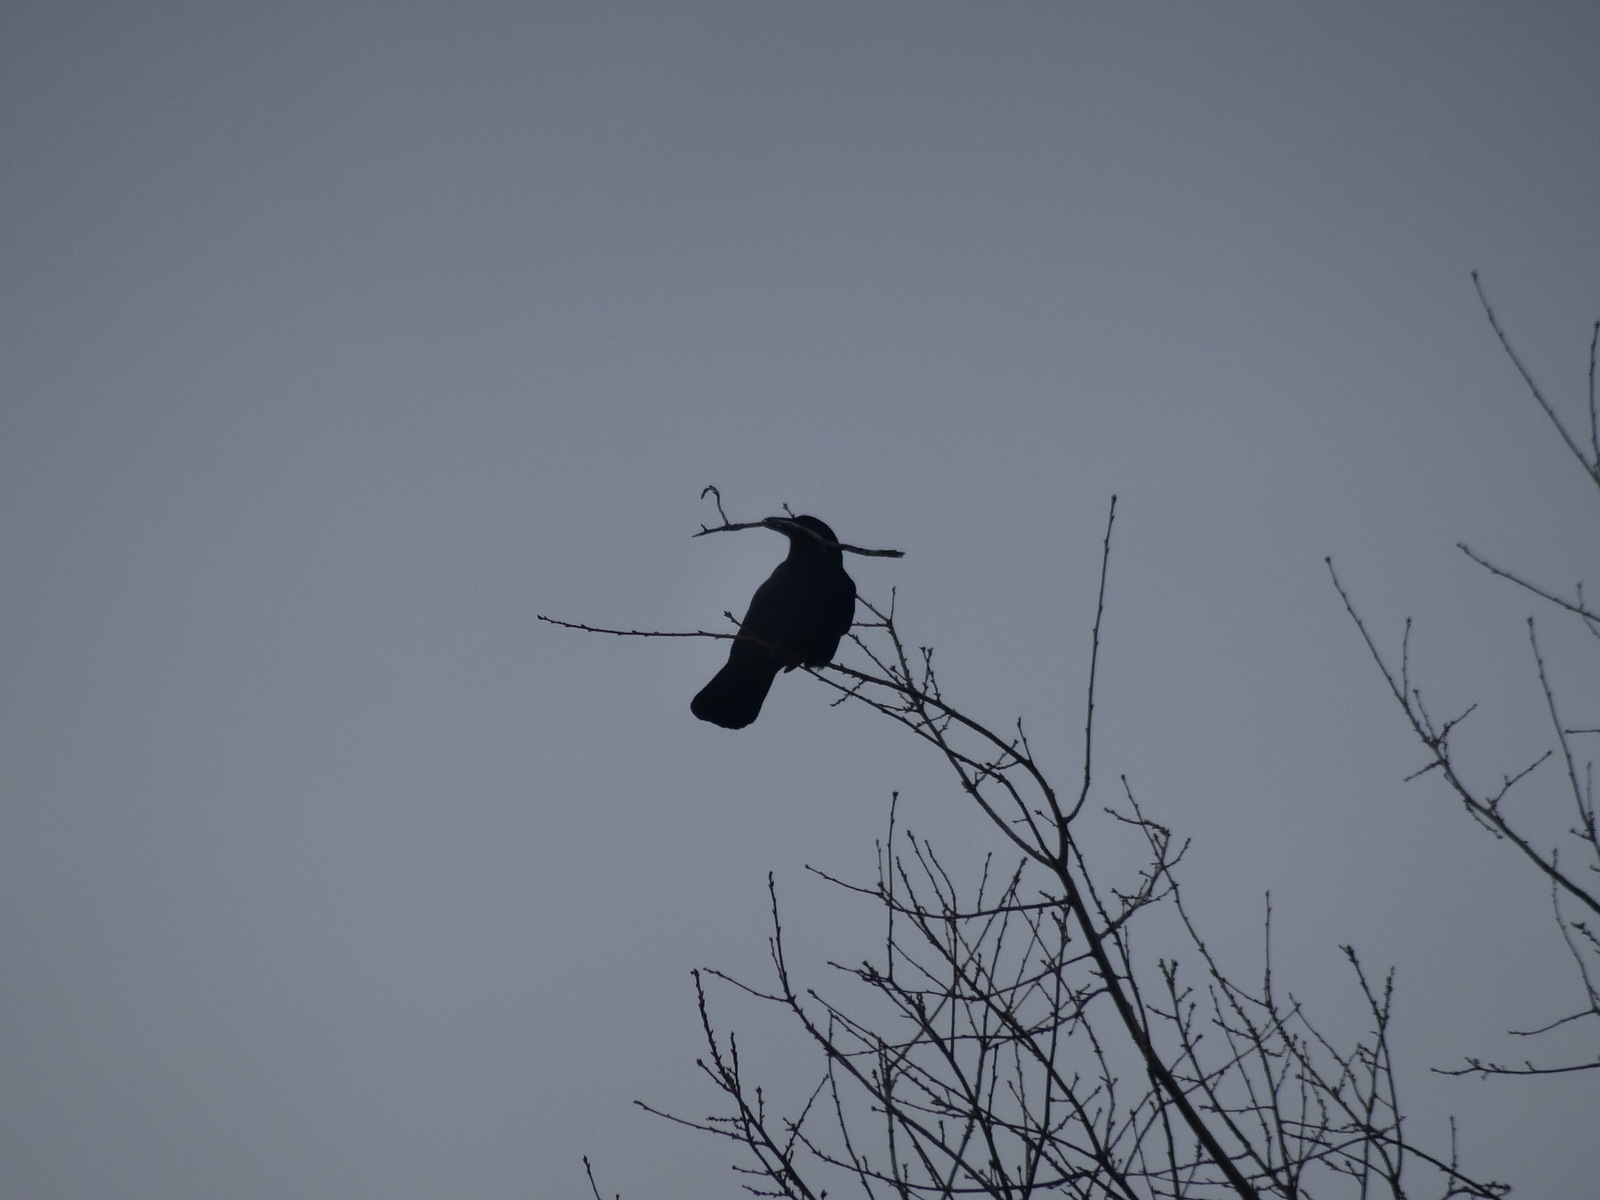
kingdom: Animalia
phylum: Chordata
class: Aves
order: Passeriformes
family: Corvidae
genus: Corvus
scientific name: Corvus brachyrhynchos
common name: American crow
